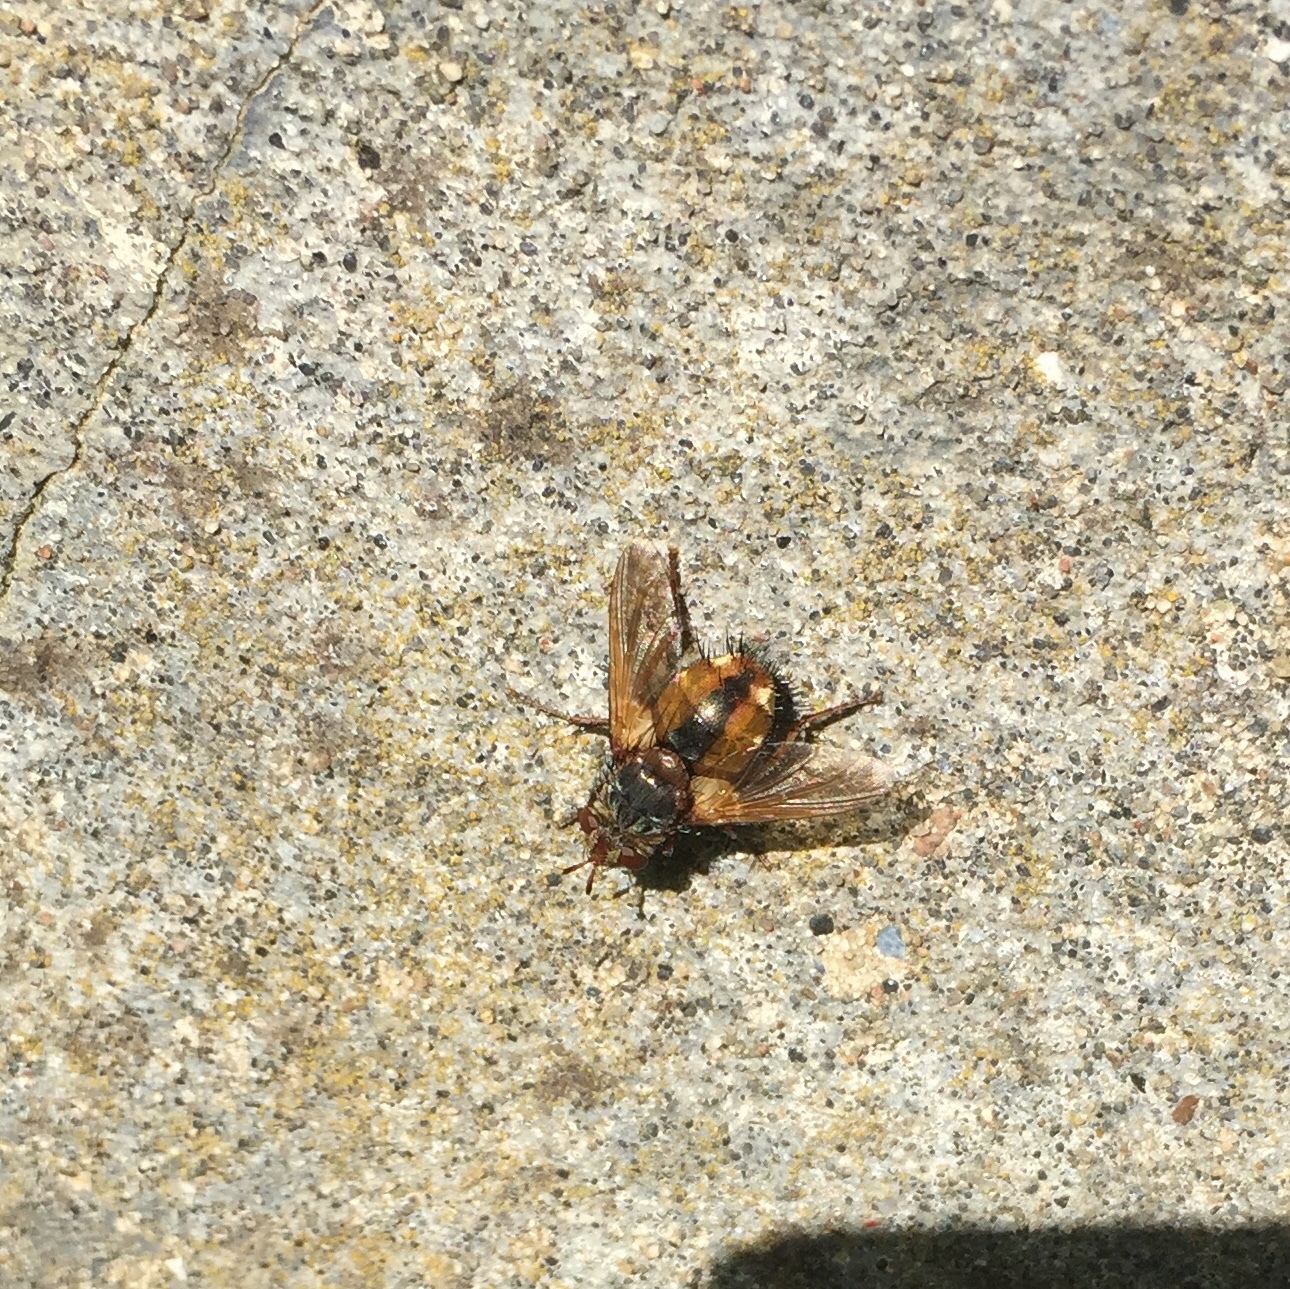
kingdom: Animalia
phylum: Arthropoda
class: Insecta
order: Diptera
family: Tachinidae
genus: Tachina
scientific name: Tachina fera
